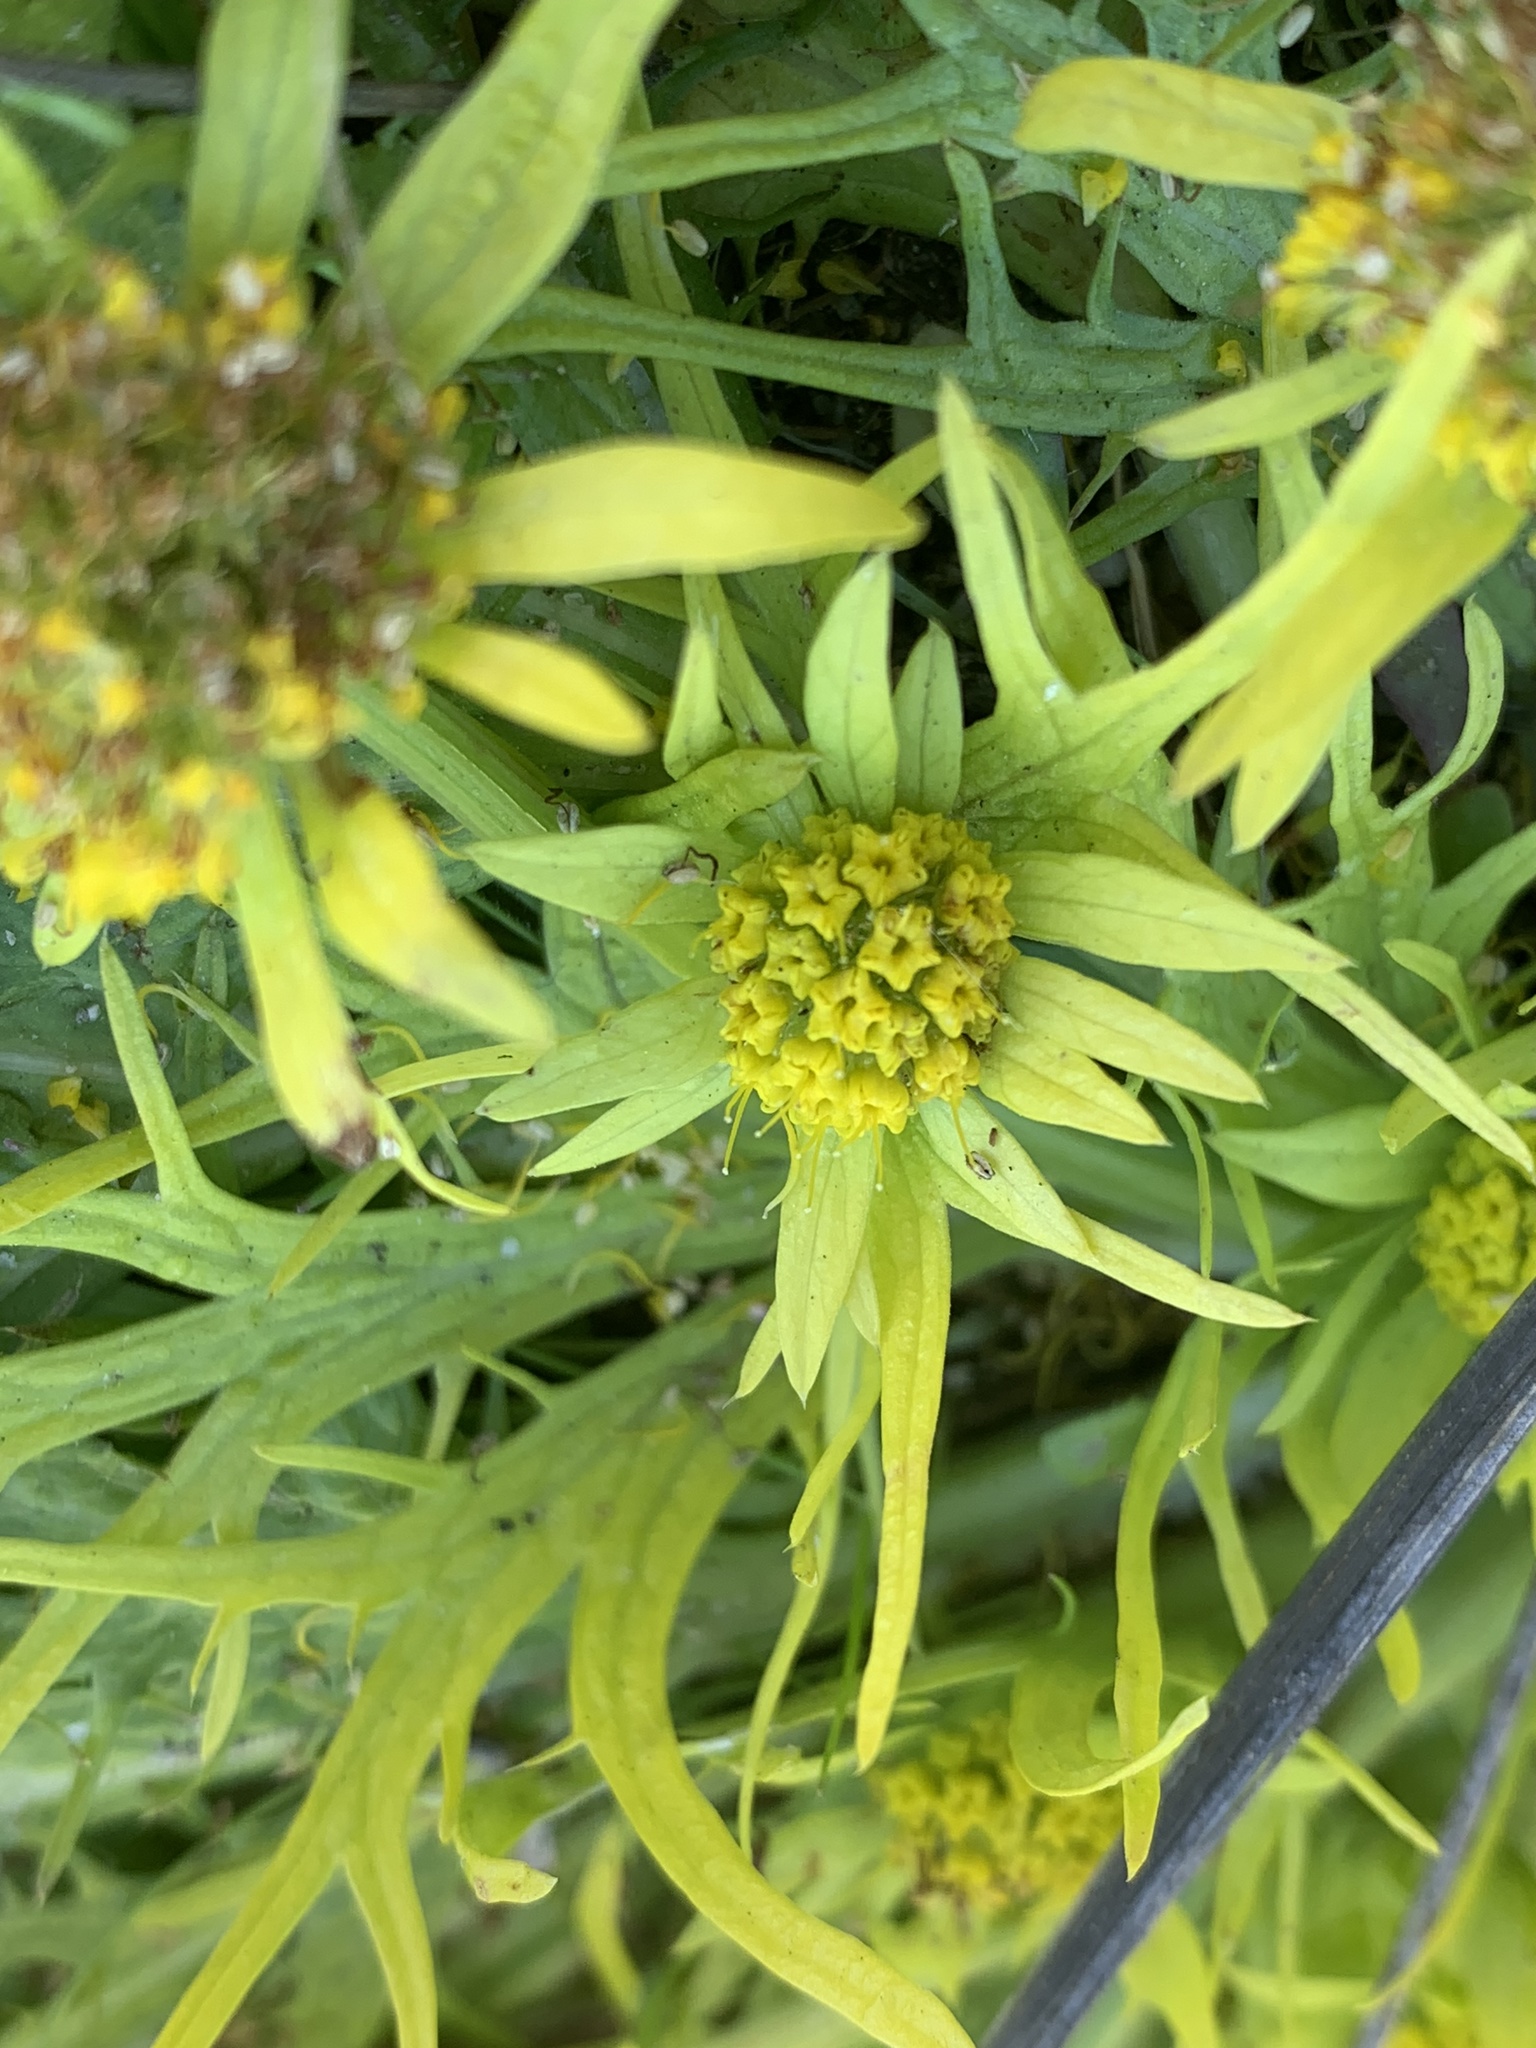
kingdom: Plantae
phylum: Tracheophyta
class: Magnoliopsida
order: Apiales
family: Apiaceae
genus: Sanicula
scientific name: Sanicula arctopoides
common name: Footsteps-of-spring
